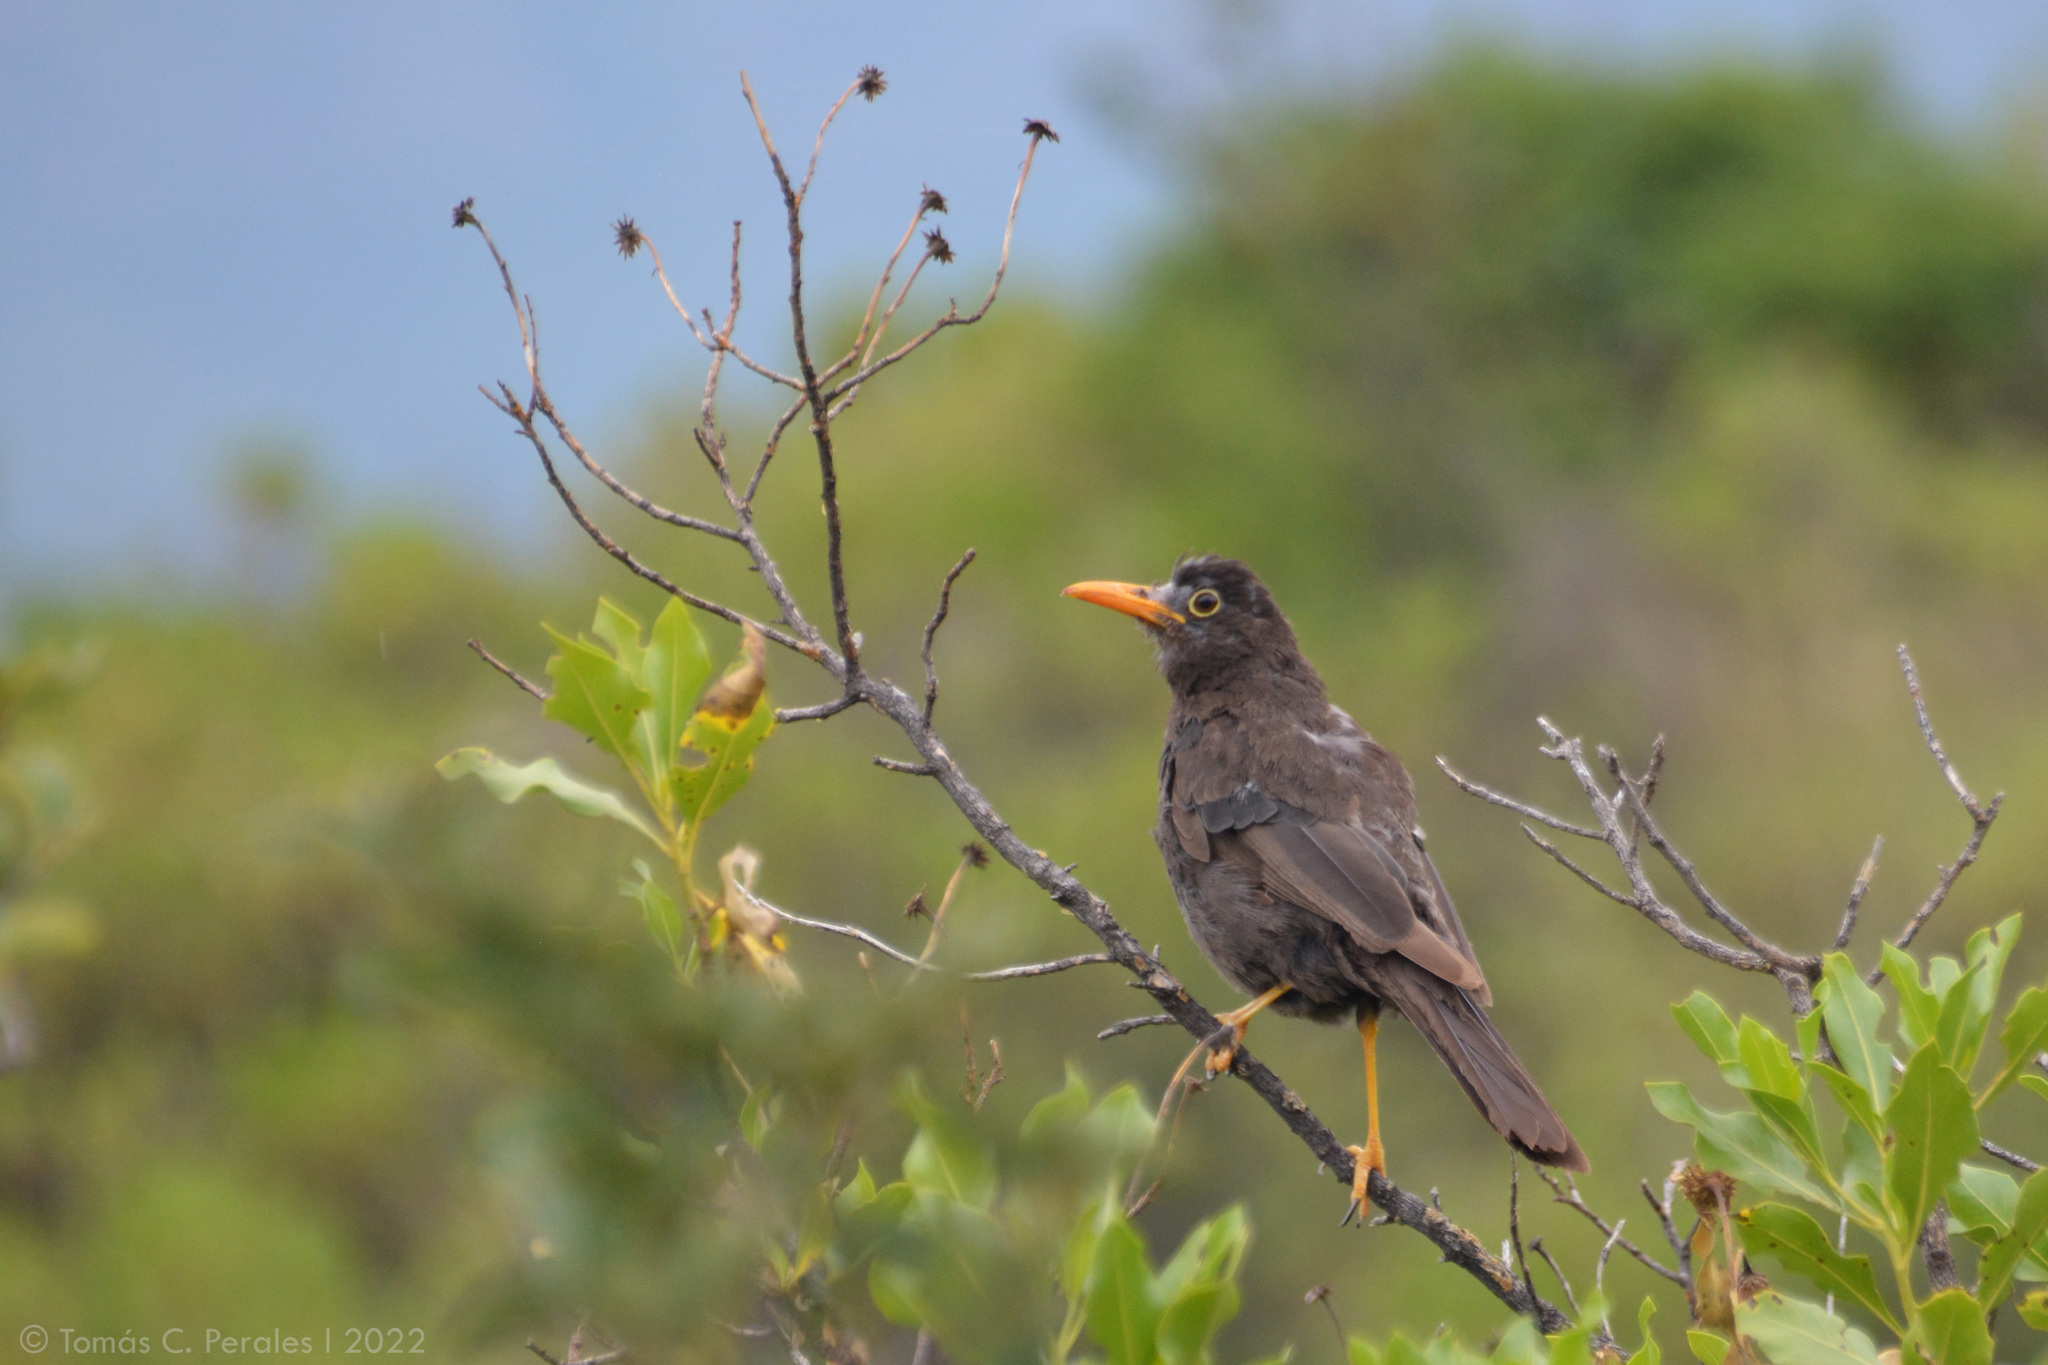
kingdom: Animalia
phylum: Chordata
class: Aves
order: Passeriformes
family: Turdidae
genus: Turdus
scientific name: Turdus chiguanco
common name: Chiguanco thrush
